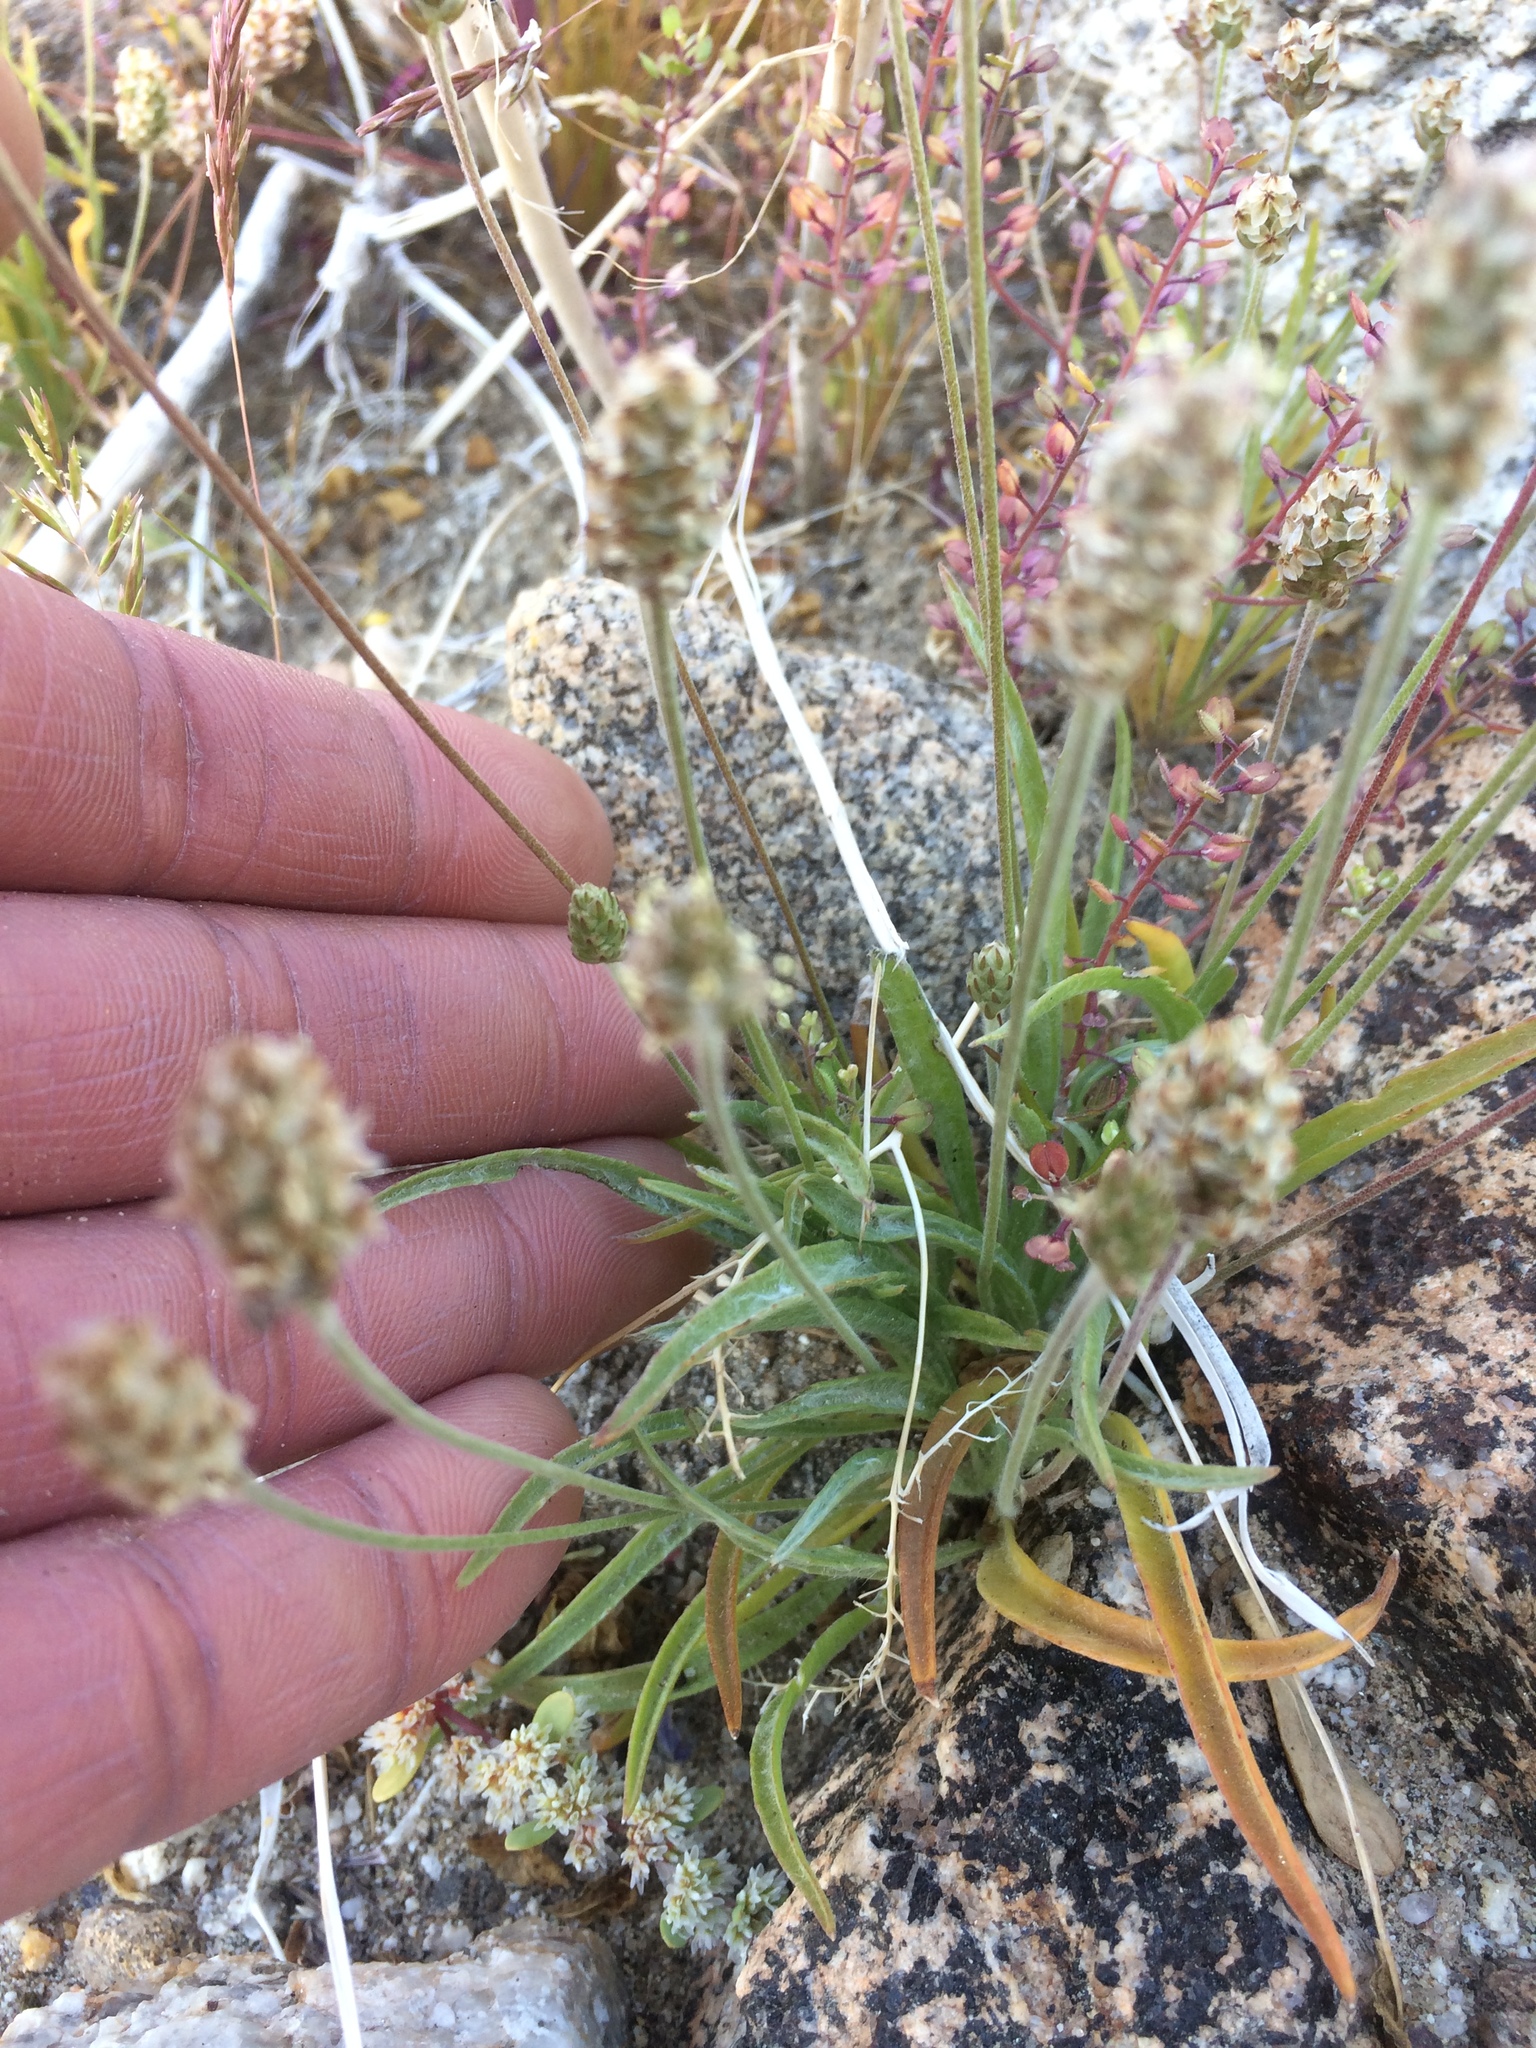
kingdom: Plantae
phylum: Tracheophyta
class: Magnoliopsida
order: Lamiales
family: Plantaginaceae
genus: Plantago
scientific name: Plantago ovata
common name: Blond plantain
